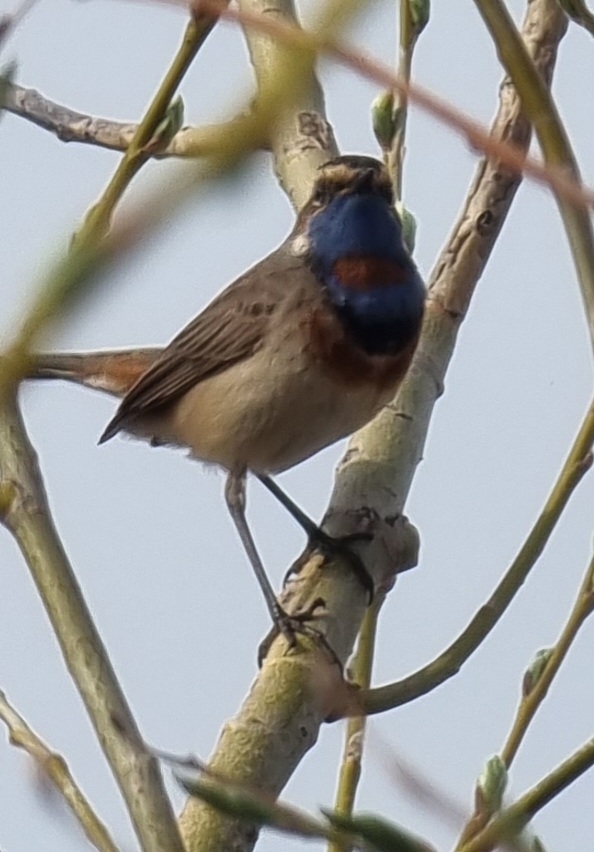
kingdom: Animalia
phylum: Chordata
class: Aves
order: Passeriformes
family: Muscicapidae
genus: Luscinia
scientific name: Luscinia svecica
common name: Bluethroat
